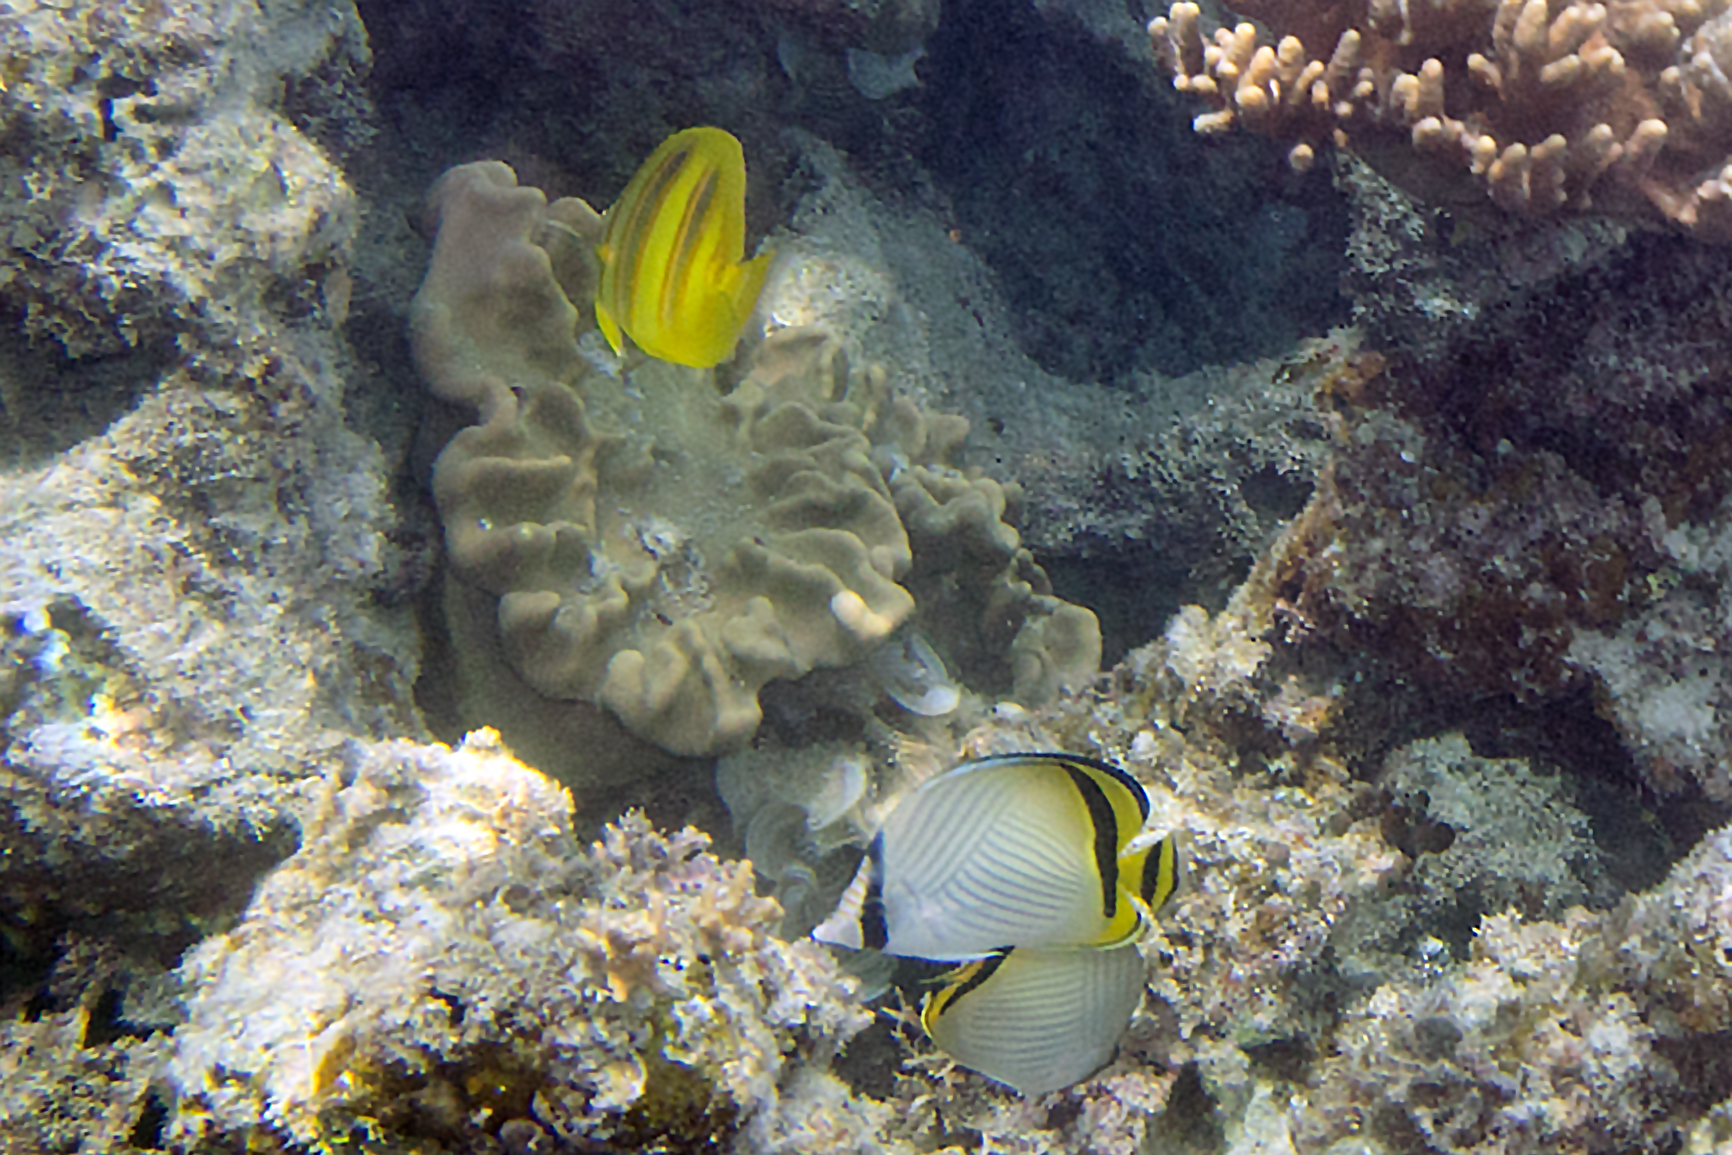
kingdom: Animalia
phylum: Chordata
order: Perciformes
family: Chaetodontidae
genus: Chaetodon
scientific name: Chaetodon vagabundus
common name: Vagabond butterflyfish
